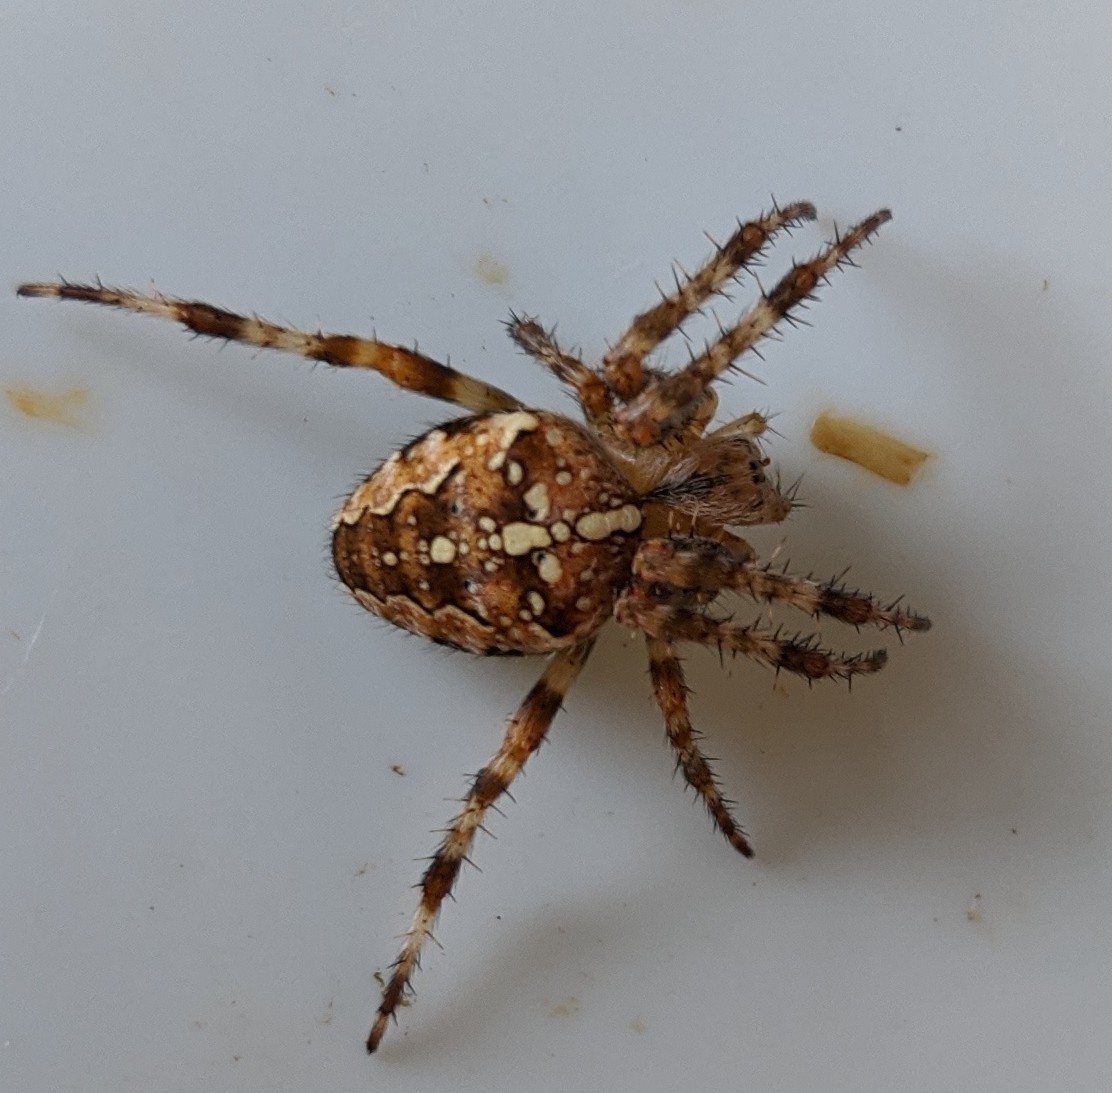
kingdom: Animalia
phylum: Arthropoda
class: Arachnida
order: Araneae
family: Araneidae
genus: Araneus
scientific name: Araneus diadematus
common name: Cross orbweaver
